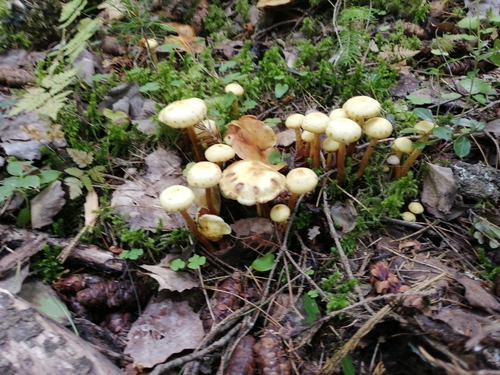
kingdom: Fungi
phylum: Basidiomycota
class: Agaricomycetes
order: Agaricales
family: Hymenogastraceae
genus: Flammula
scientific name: Flammula alnicola
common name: Alder scalycap
